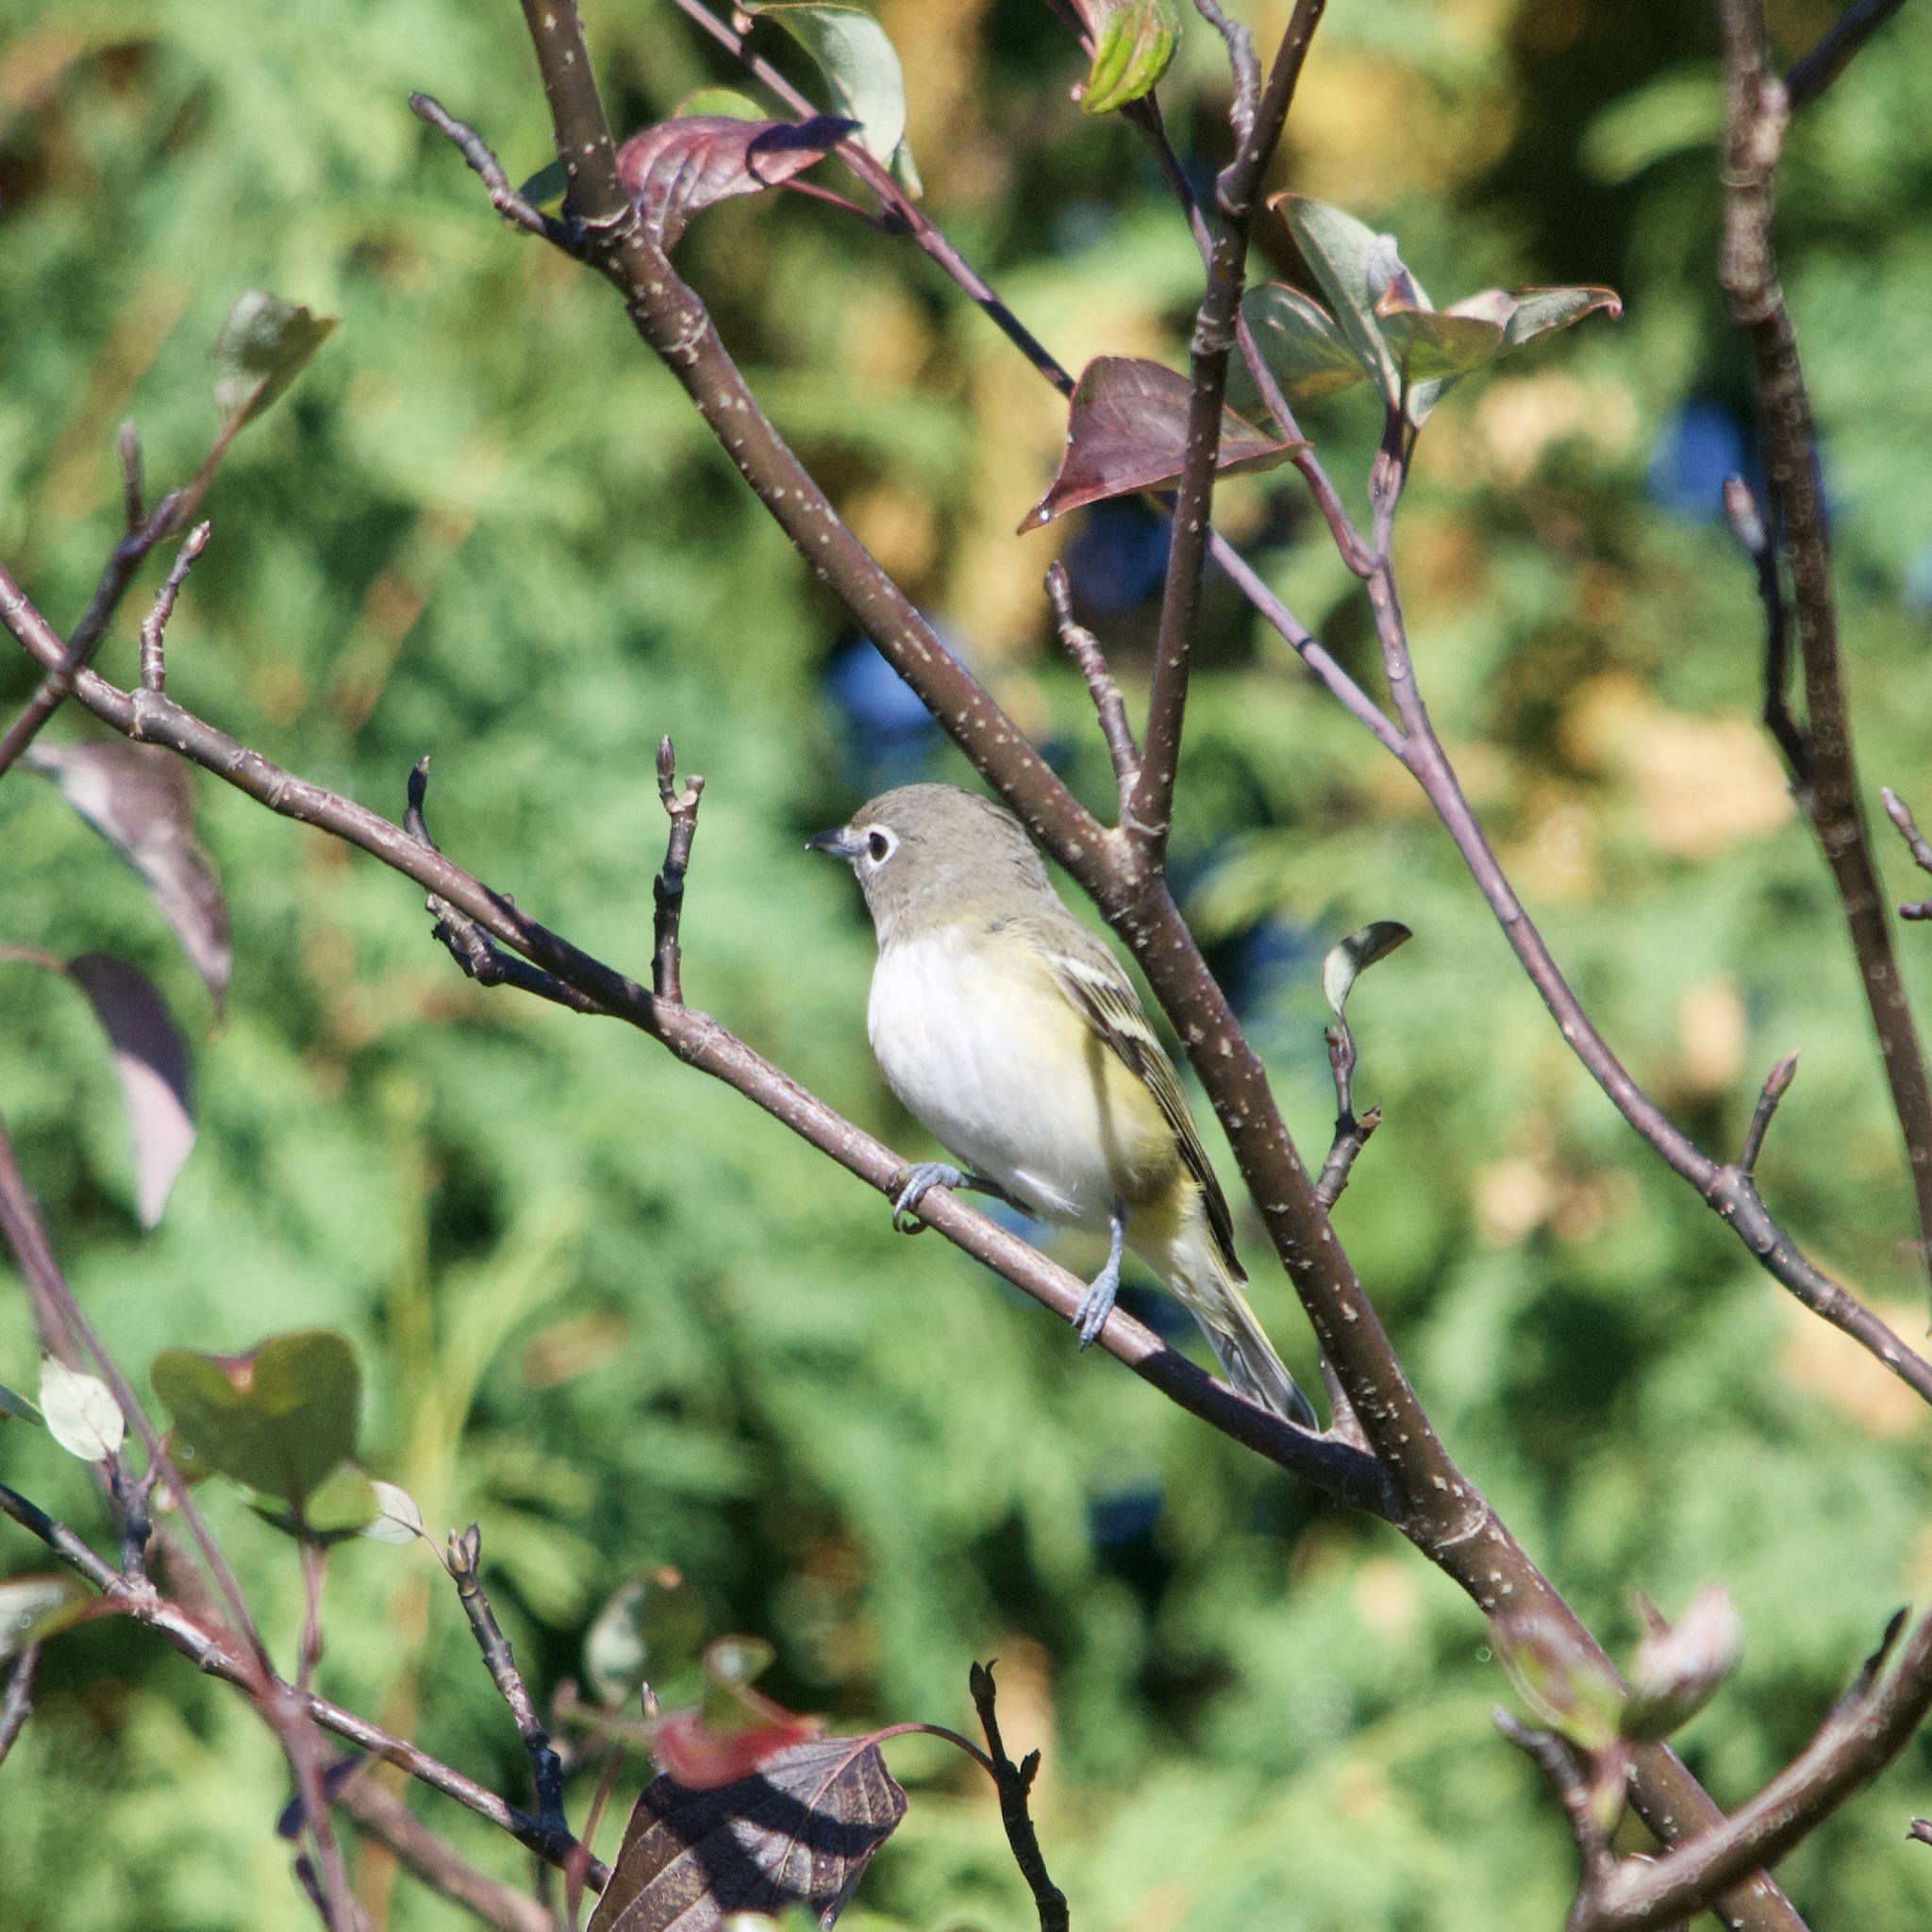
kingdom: Animalia
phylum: Chordata
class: Aves
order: Passeriformes
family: Vireonidae
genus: Vireo
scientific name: Vireo solitarius
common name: Blue-headed vireo
